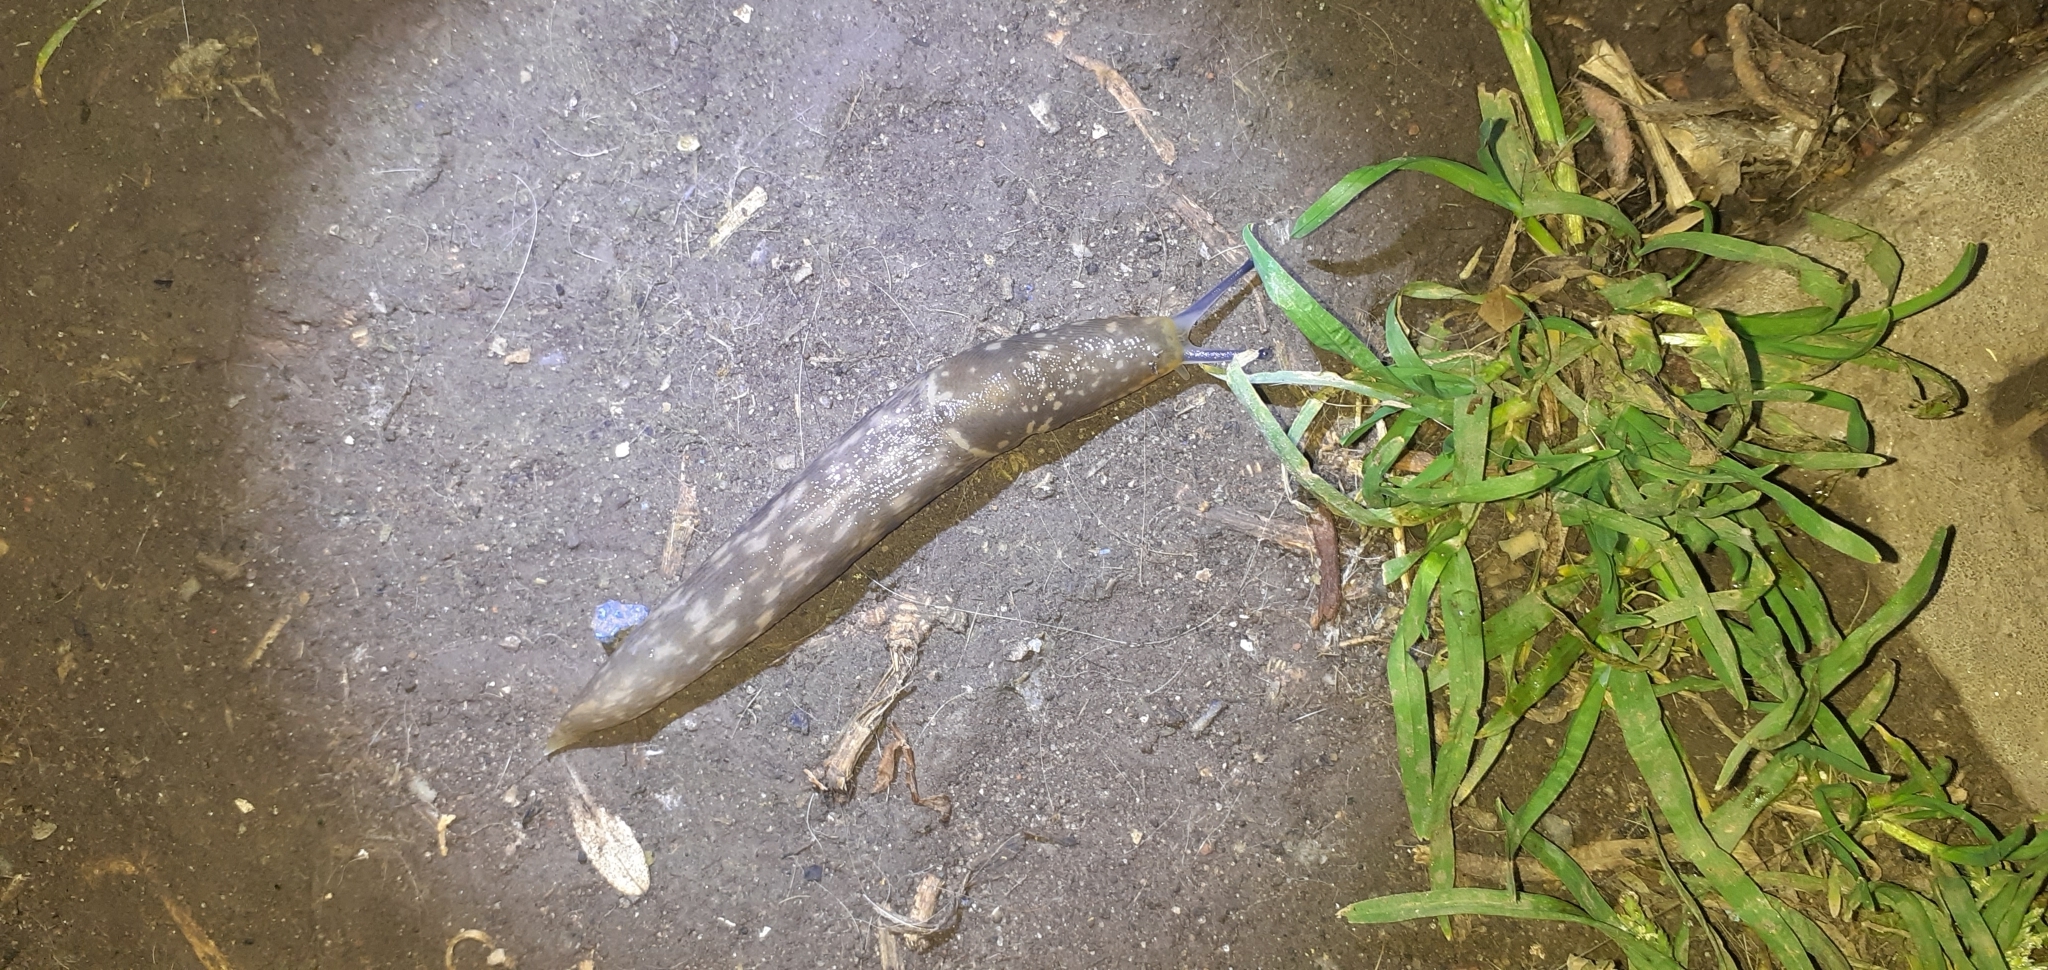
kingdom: Animalia
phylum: Mollusca
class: Gastropoda
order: Stylommatophora
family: Limacidae
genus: Limacus
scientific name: Limacus flavus
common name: Yellow gardenslug
